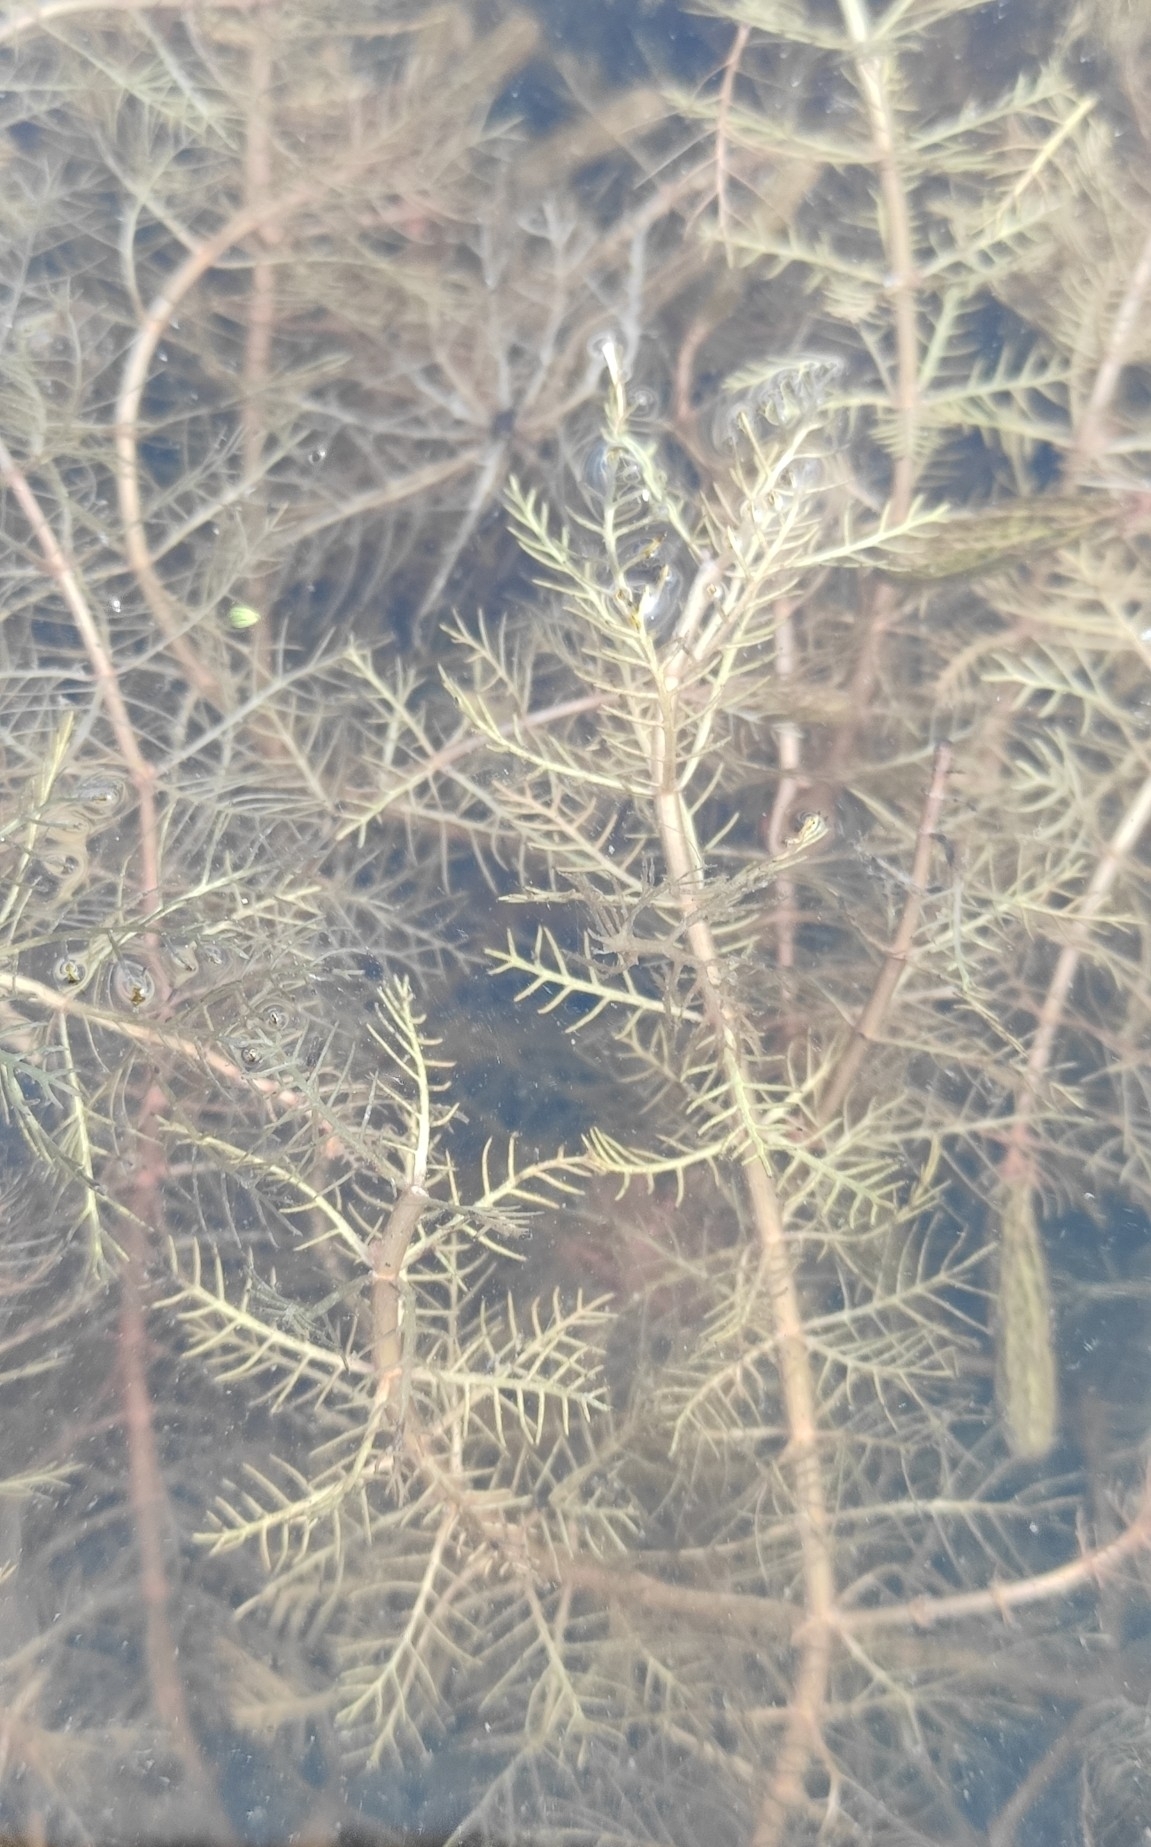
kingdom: Plantae
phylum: Tracheophyta
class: Magnoliopsida
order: Saxifragales
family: Haloragaceae
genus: Myriophyllum
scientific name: Myriophyllum verticillatum
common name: Whorled water-milfoil
